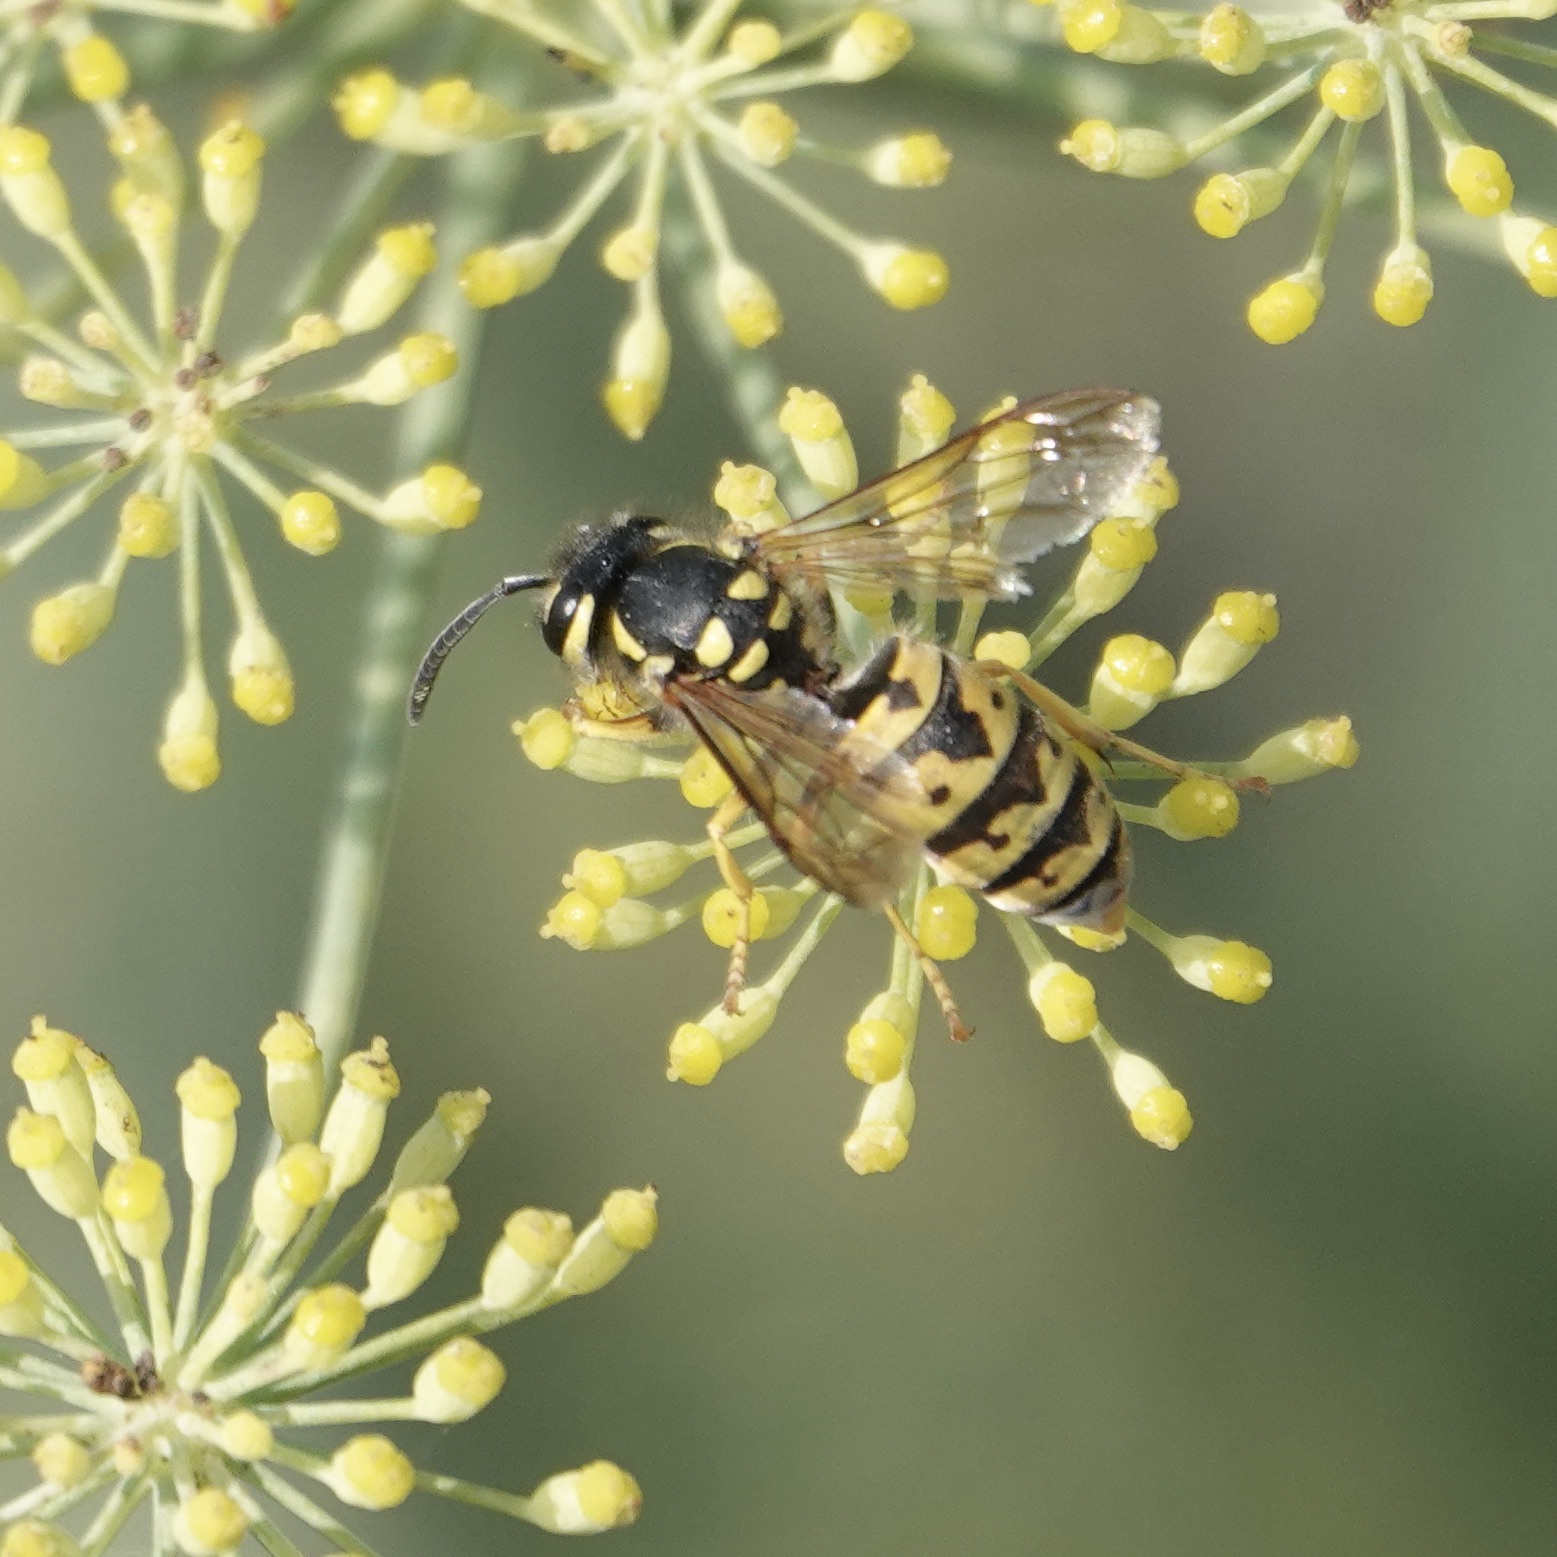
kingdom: Animalia
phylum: Arthropoda
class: Insecta
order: Hymenoptera
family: Vespidae
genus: Vespula
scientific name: Vespula germanica
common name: German wasp
